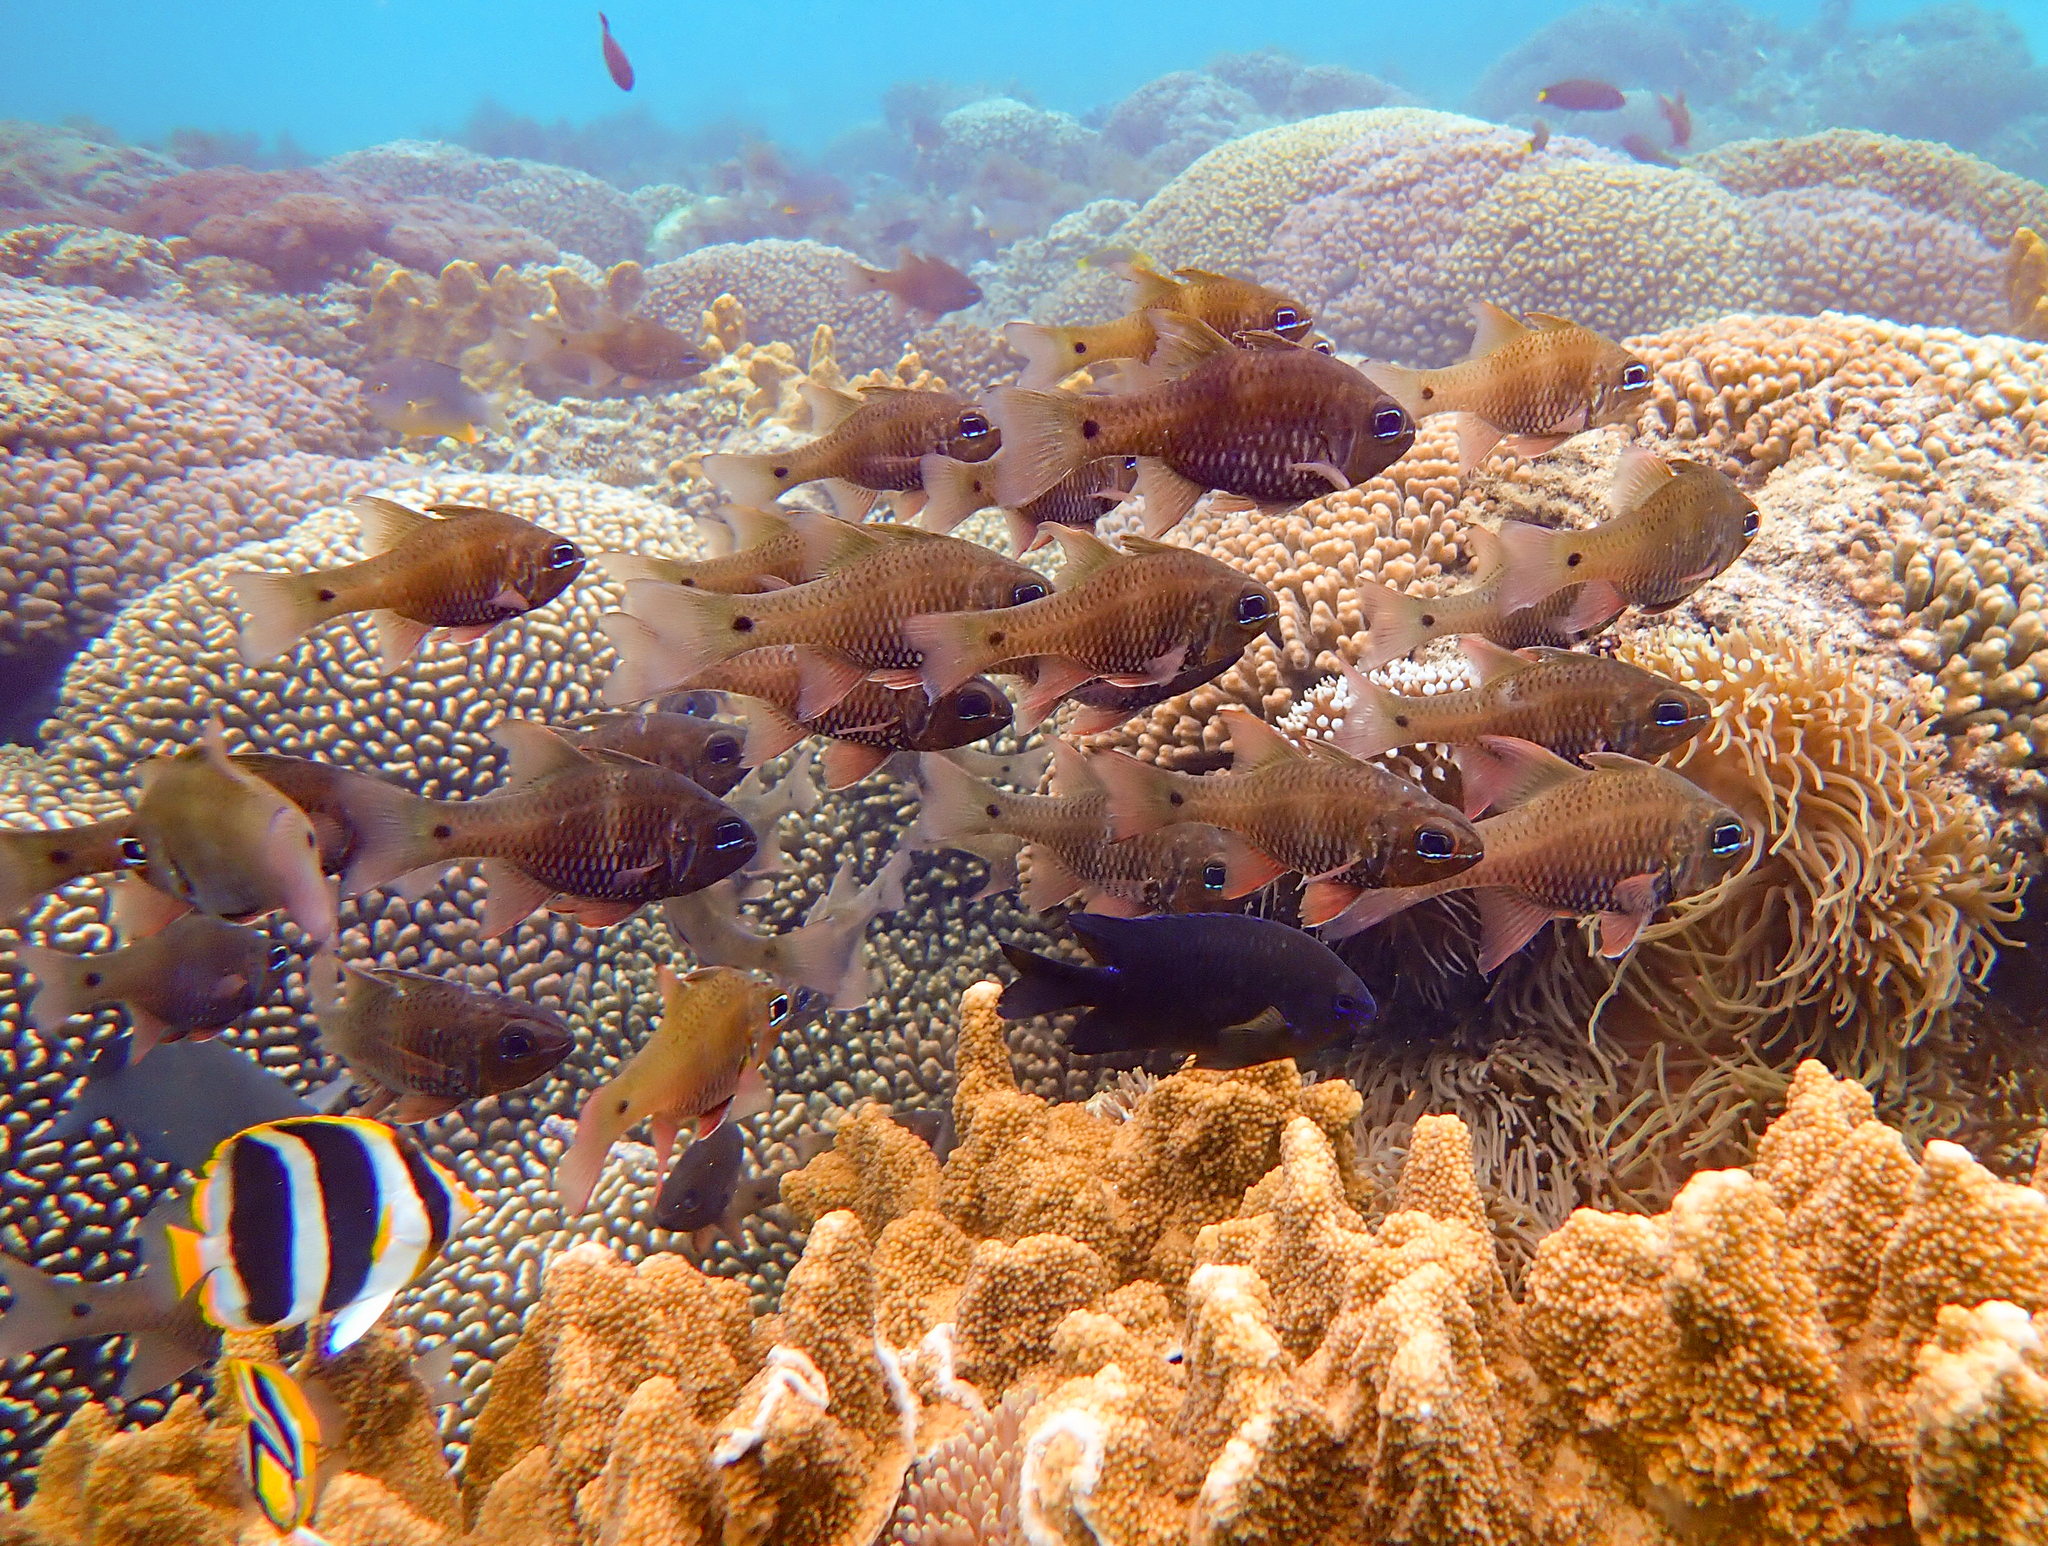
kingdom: Animalia
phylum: Chordata
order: Perciformes
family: Apogonidae
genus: Ostorhinchus
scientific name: Ostorhinchus norfolcensis
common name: Norfolk cardinalfish
